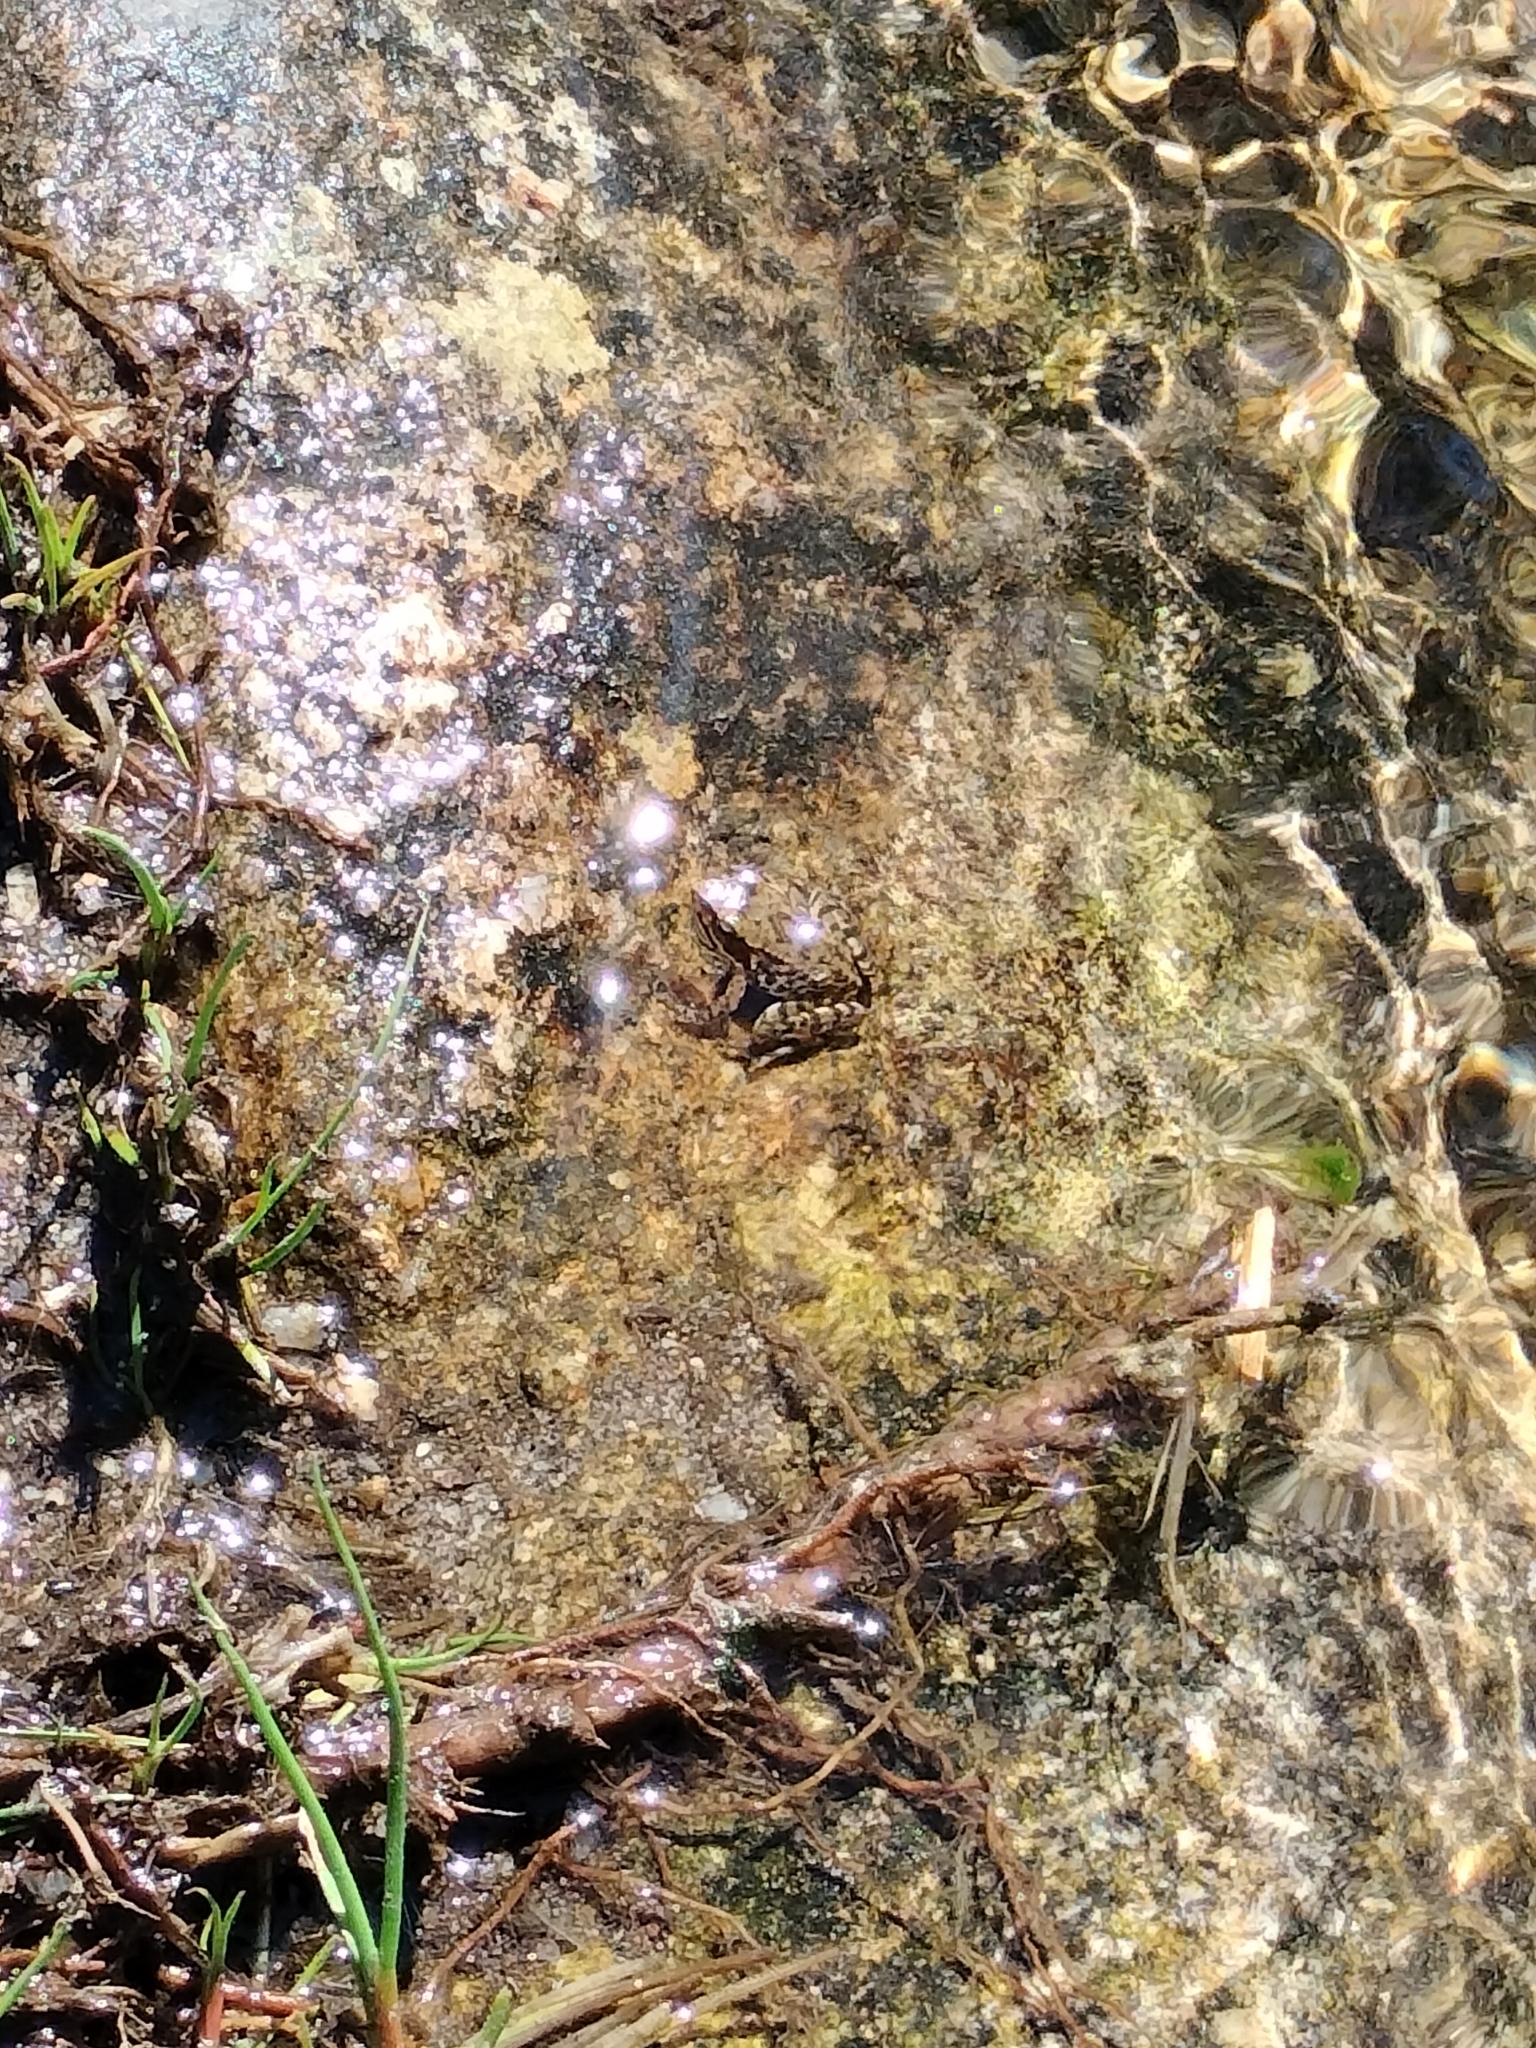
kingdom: Animalia
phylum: Chordata
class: Amphibia
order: Anura
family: Ranidae
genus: Rana
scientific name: Rana iberica
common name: Iberian frog
